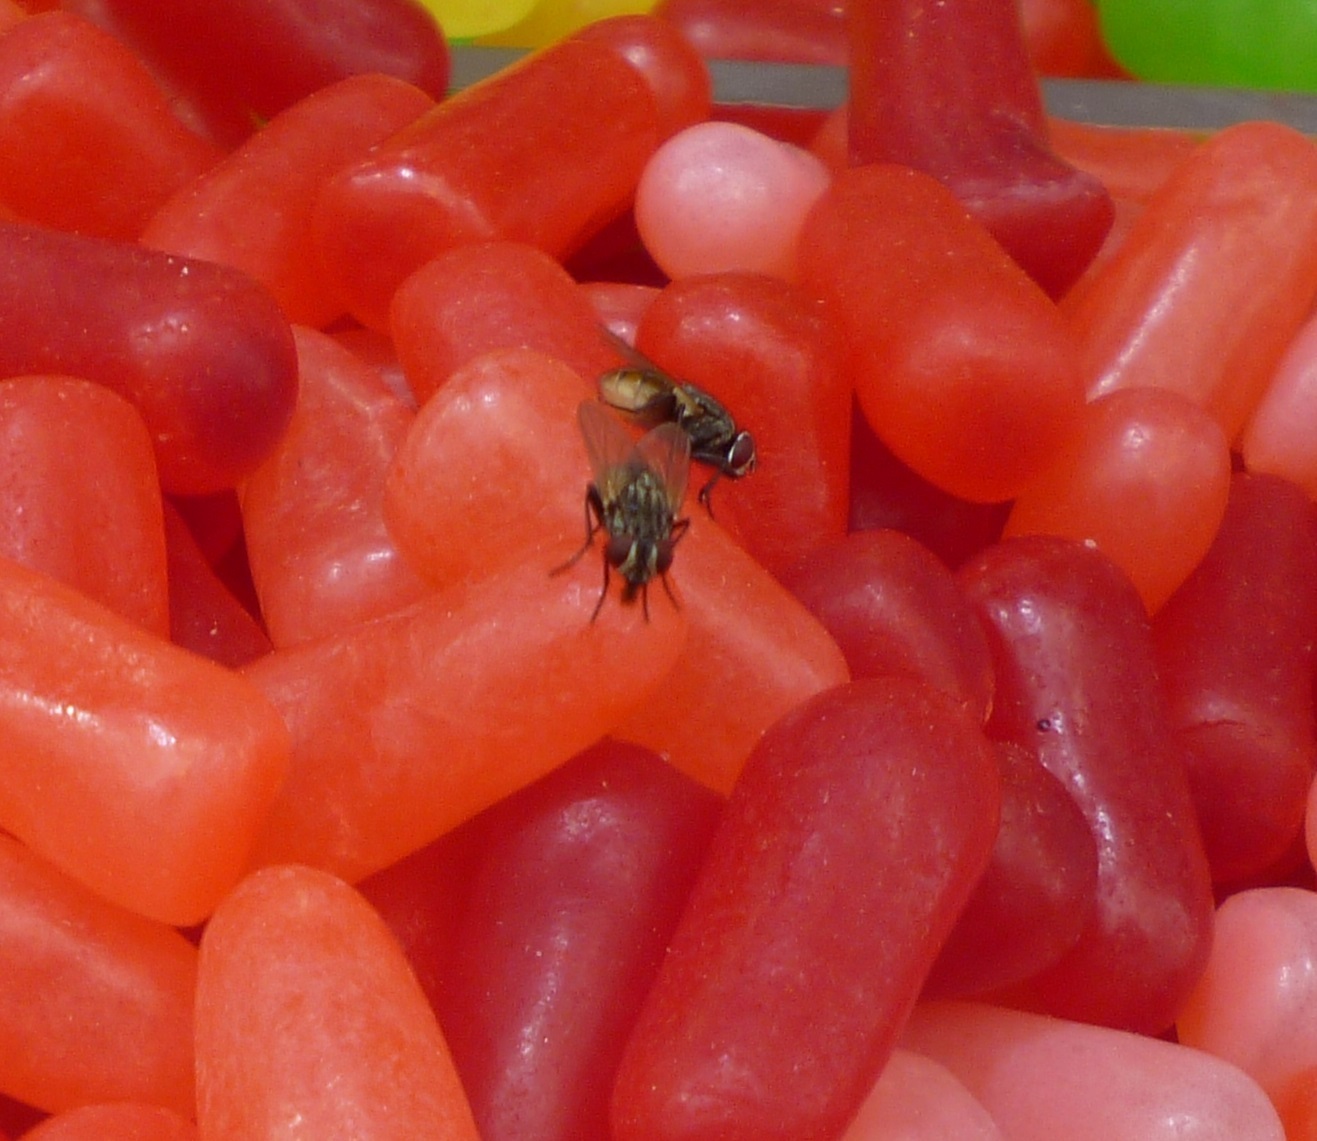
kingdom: Animalia
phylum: Arthropoda
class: Insecta
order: Diptera
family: Muscidae
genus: Musca
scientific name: Musca domestica
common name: House fly
